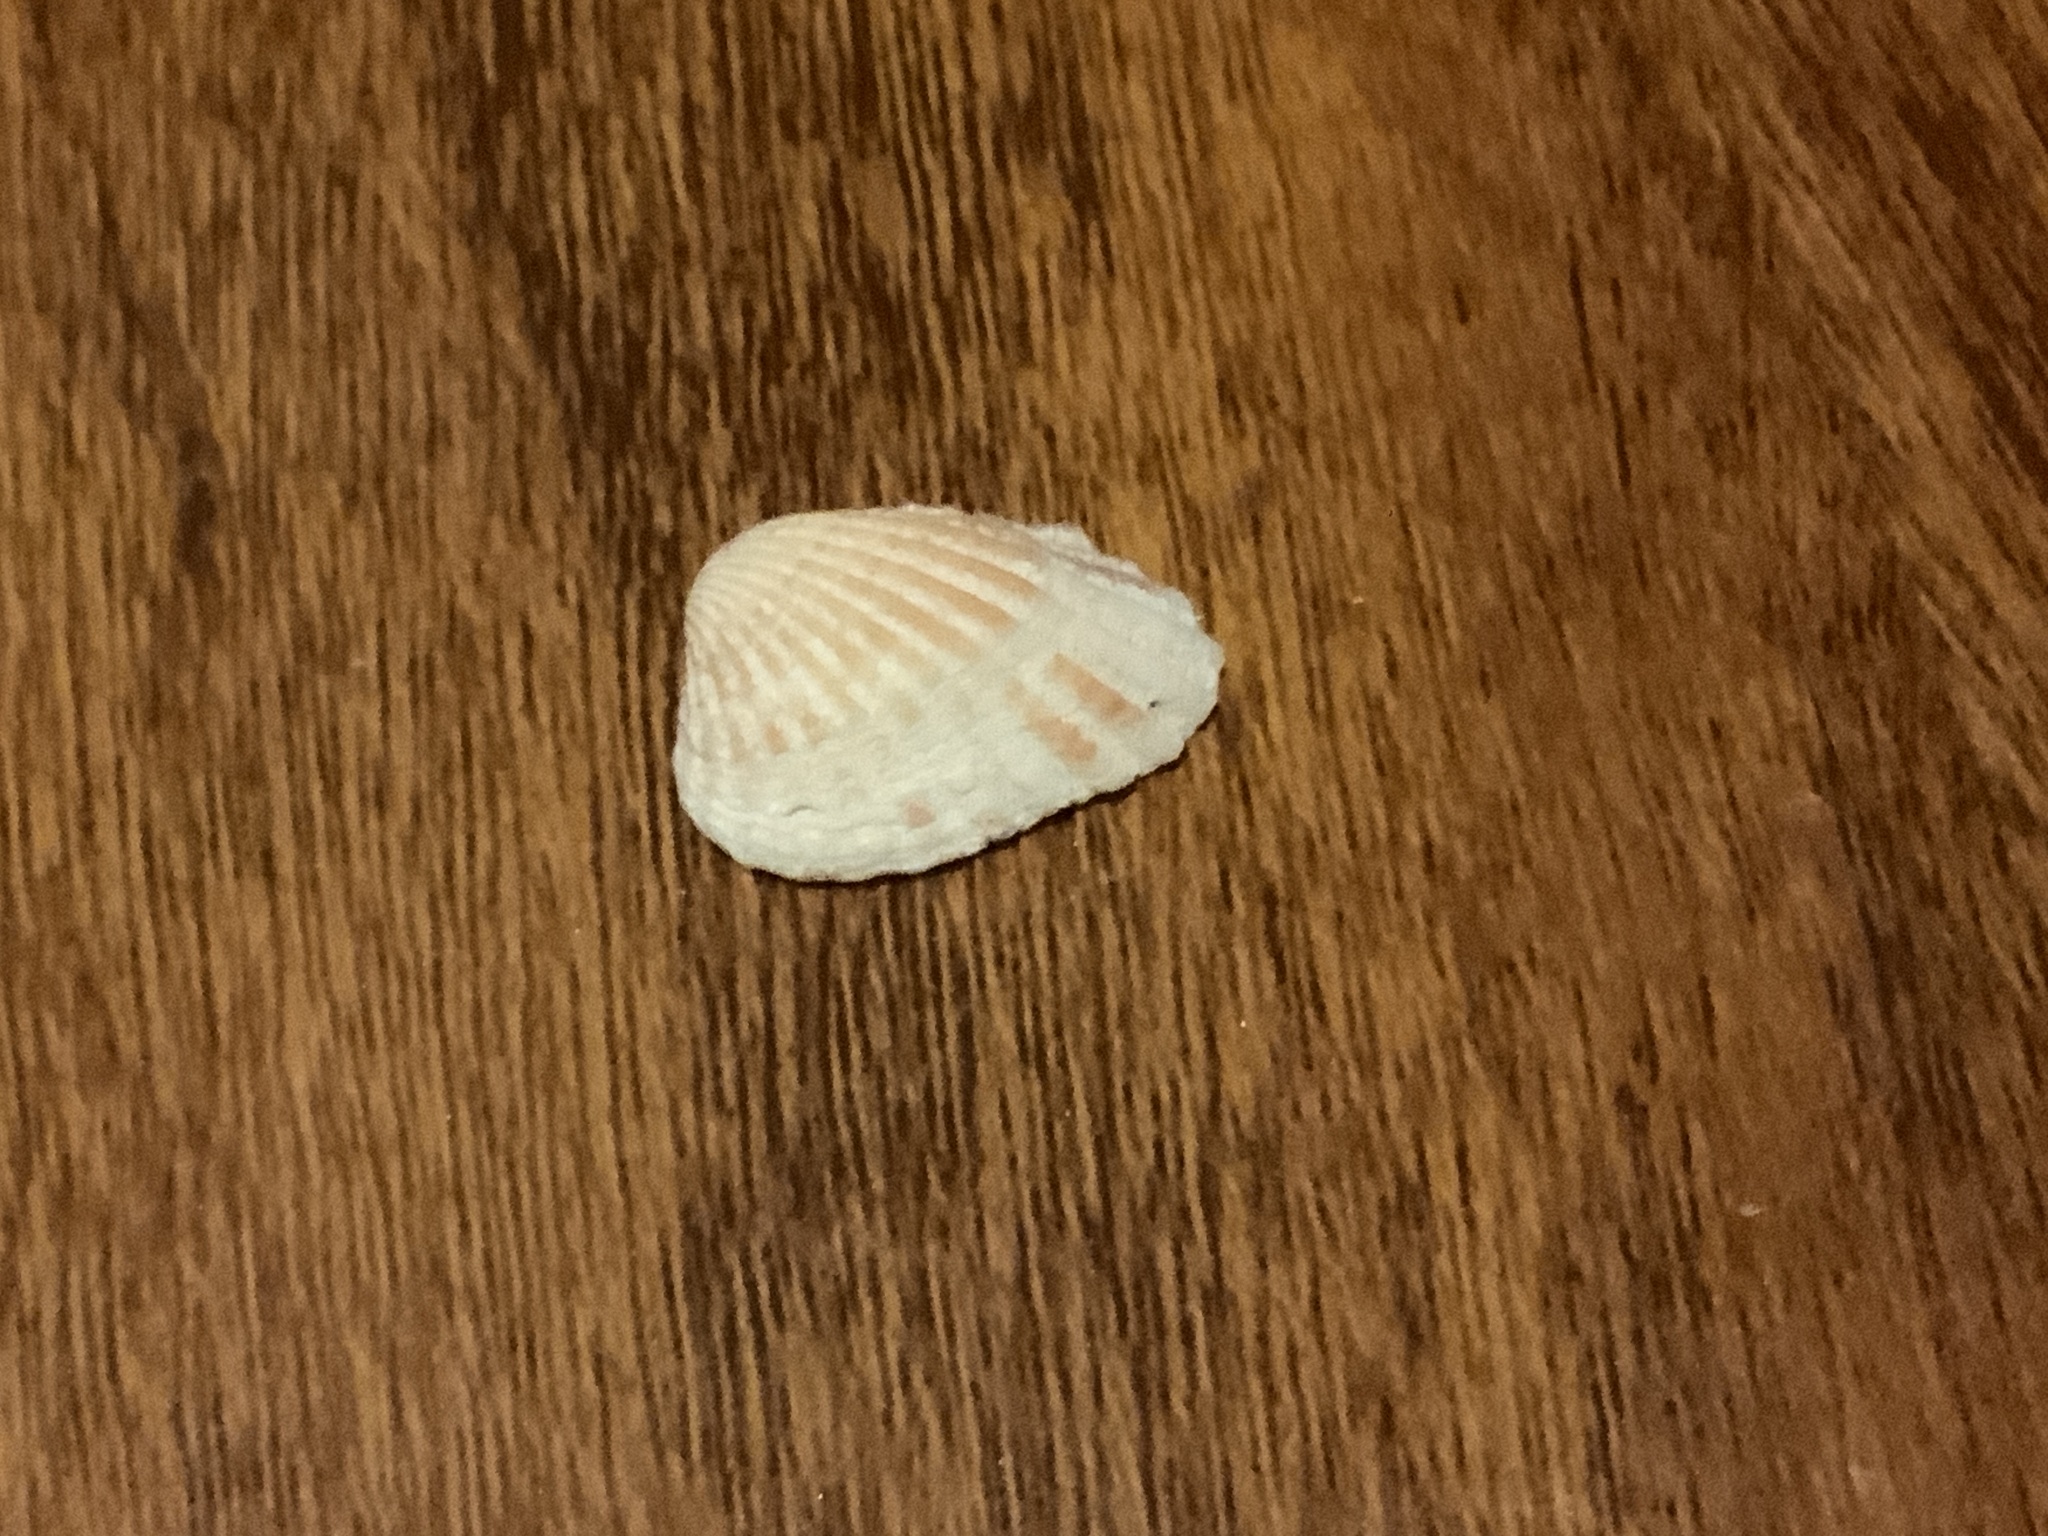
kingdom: Animalia
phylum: Mollusca
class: Bivalvia
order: Carditida
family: Carditidae
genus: Cardites
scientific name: Cardites floridanus
